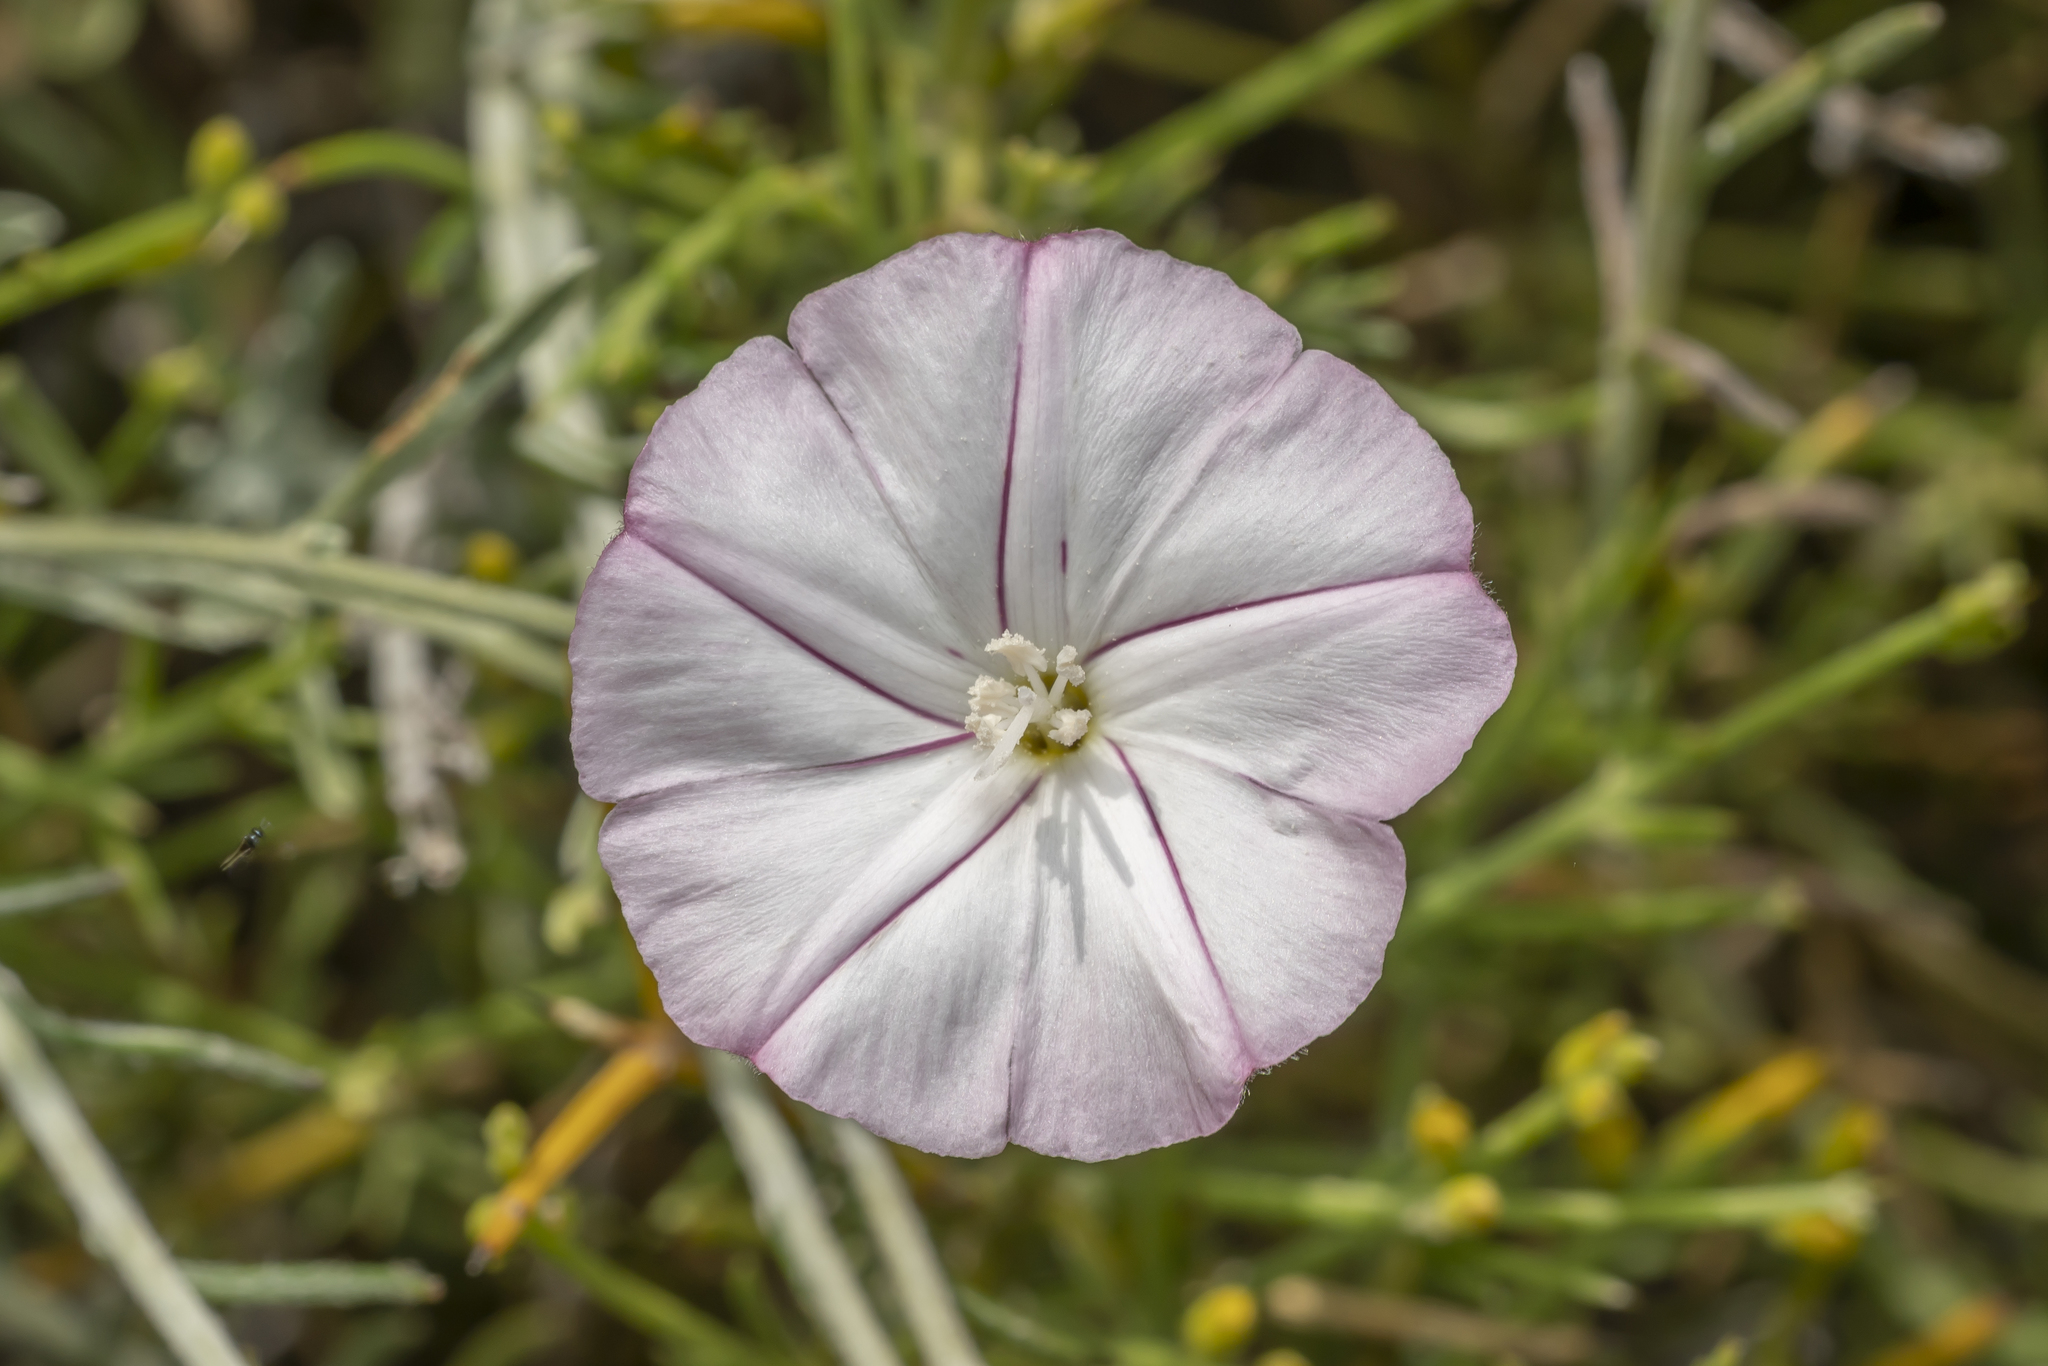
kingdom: Plantae
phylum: Tracheophyta
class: Magnoliopsida
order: Solanales
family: Convolvulaceae
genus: Convolvulus
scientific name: Convolvulus oleifolius
